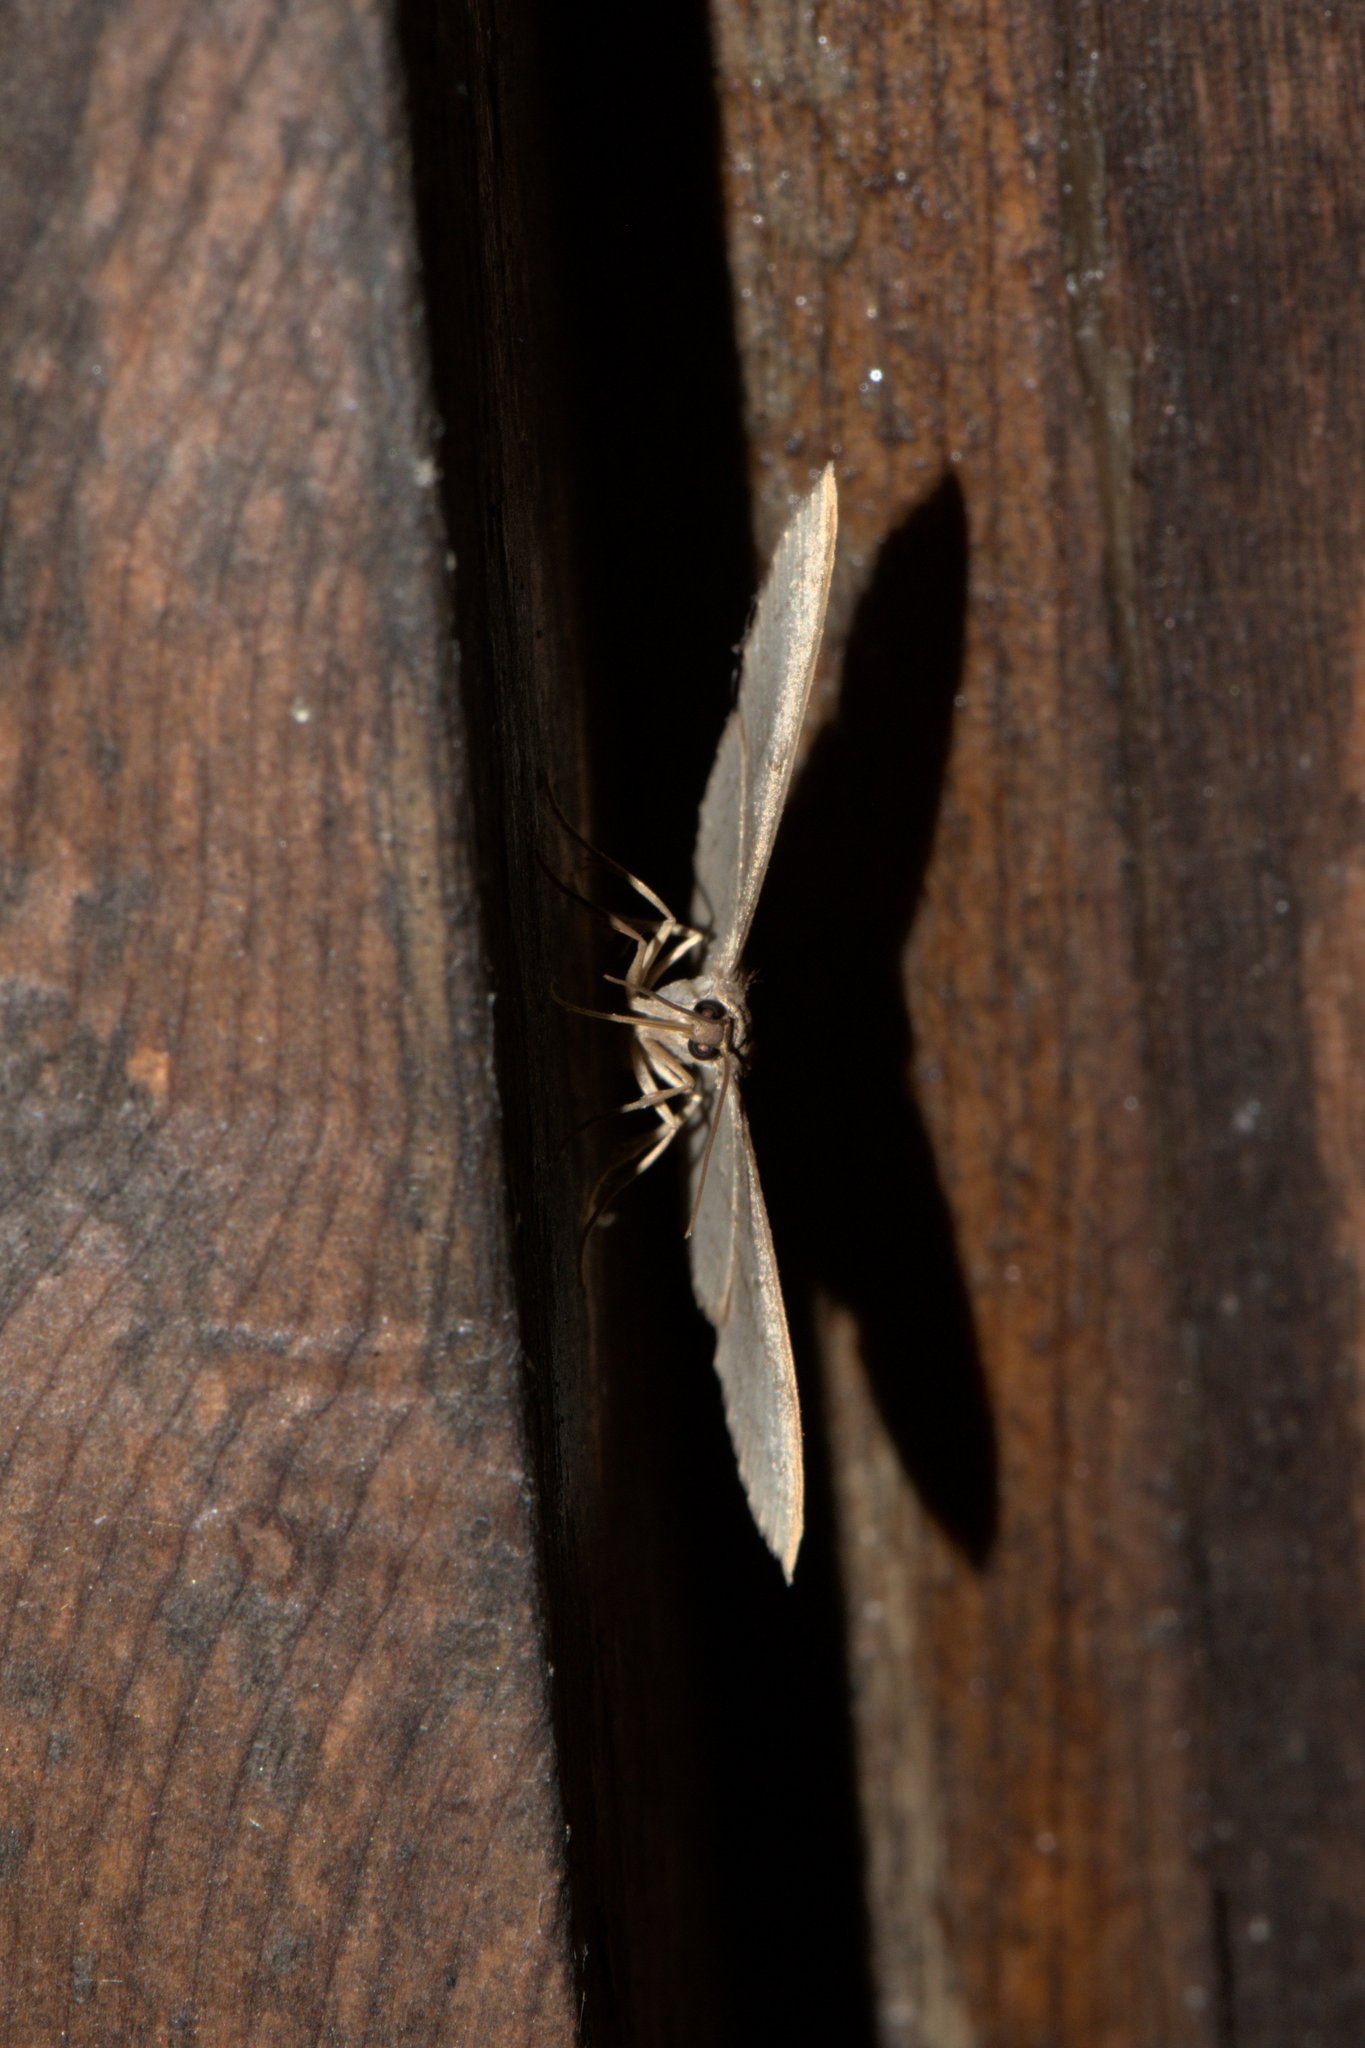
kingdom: Animalia
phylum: Arthropoda
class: Insecta
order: Lepidoptera
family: Geometridae
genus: Hydrelia
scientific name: Hydrelia sericea
